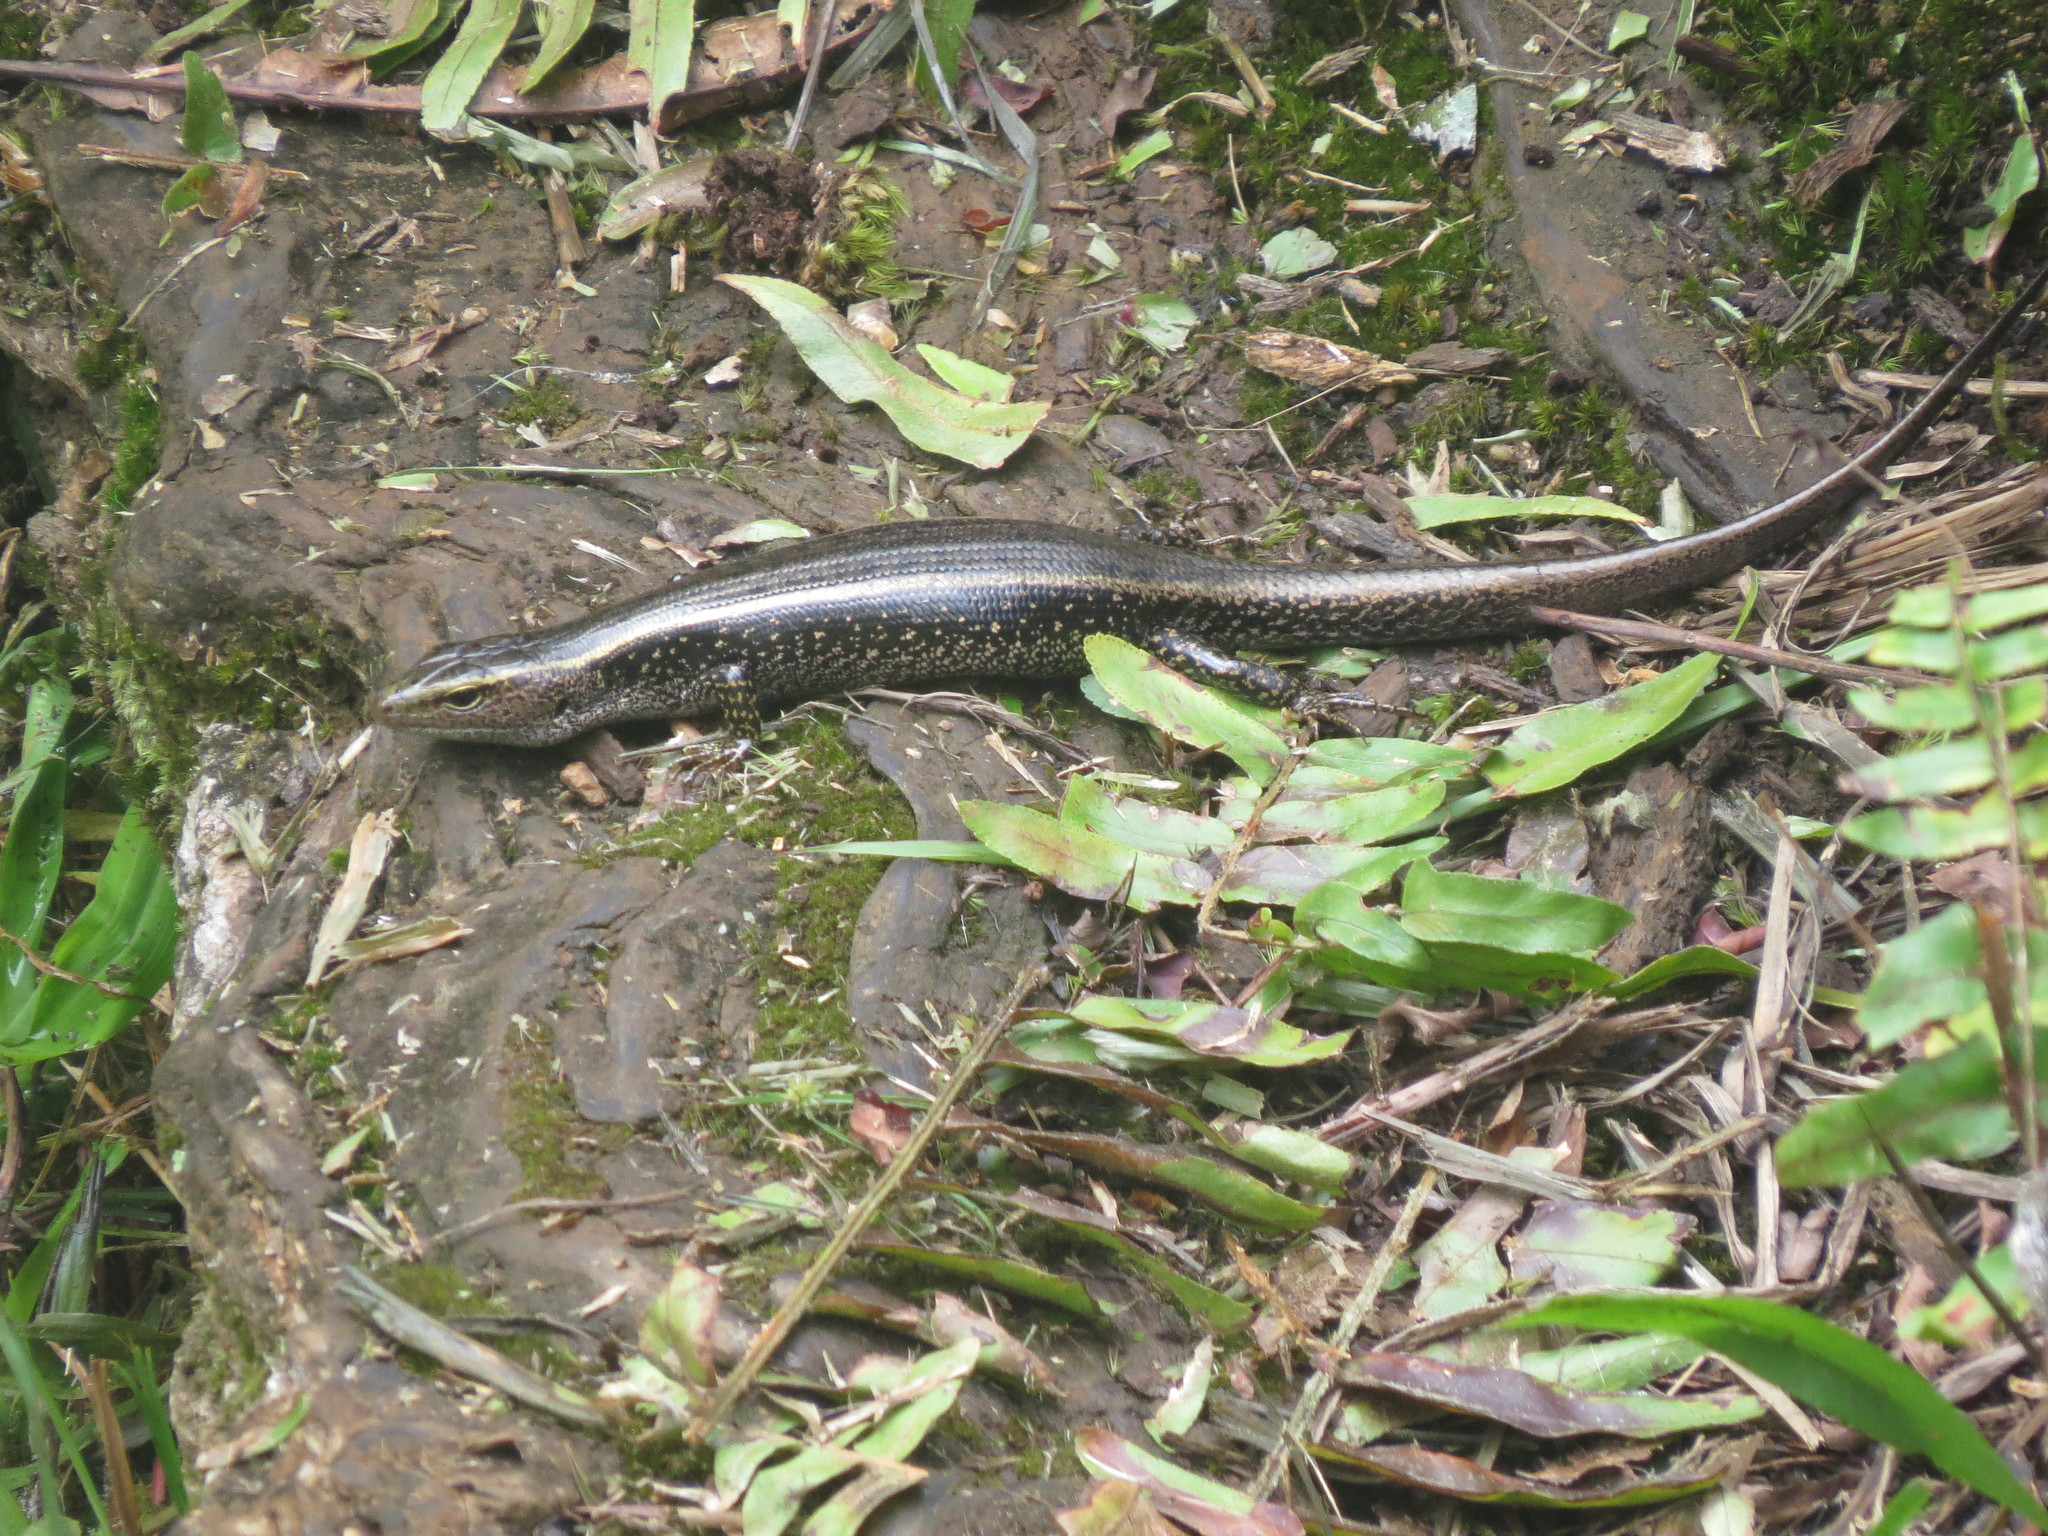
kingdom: Animalia
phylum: Chordata
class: Squamata
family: Scincidae
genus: Eulamprus
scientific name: Eulamprus quoyii
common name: Eastern water skink
